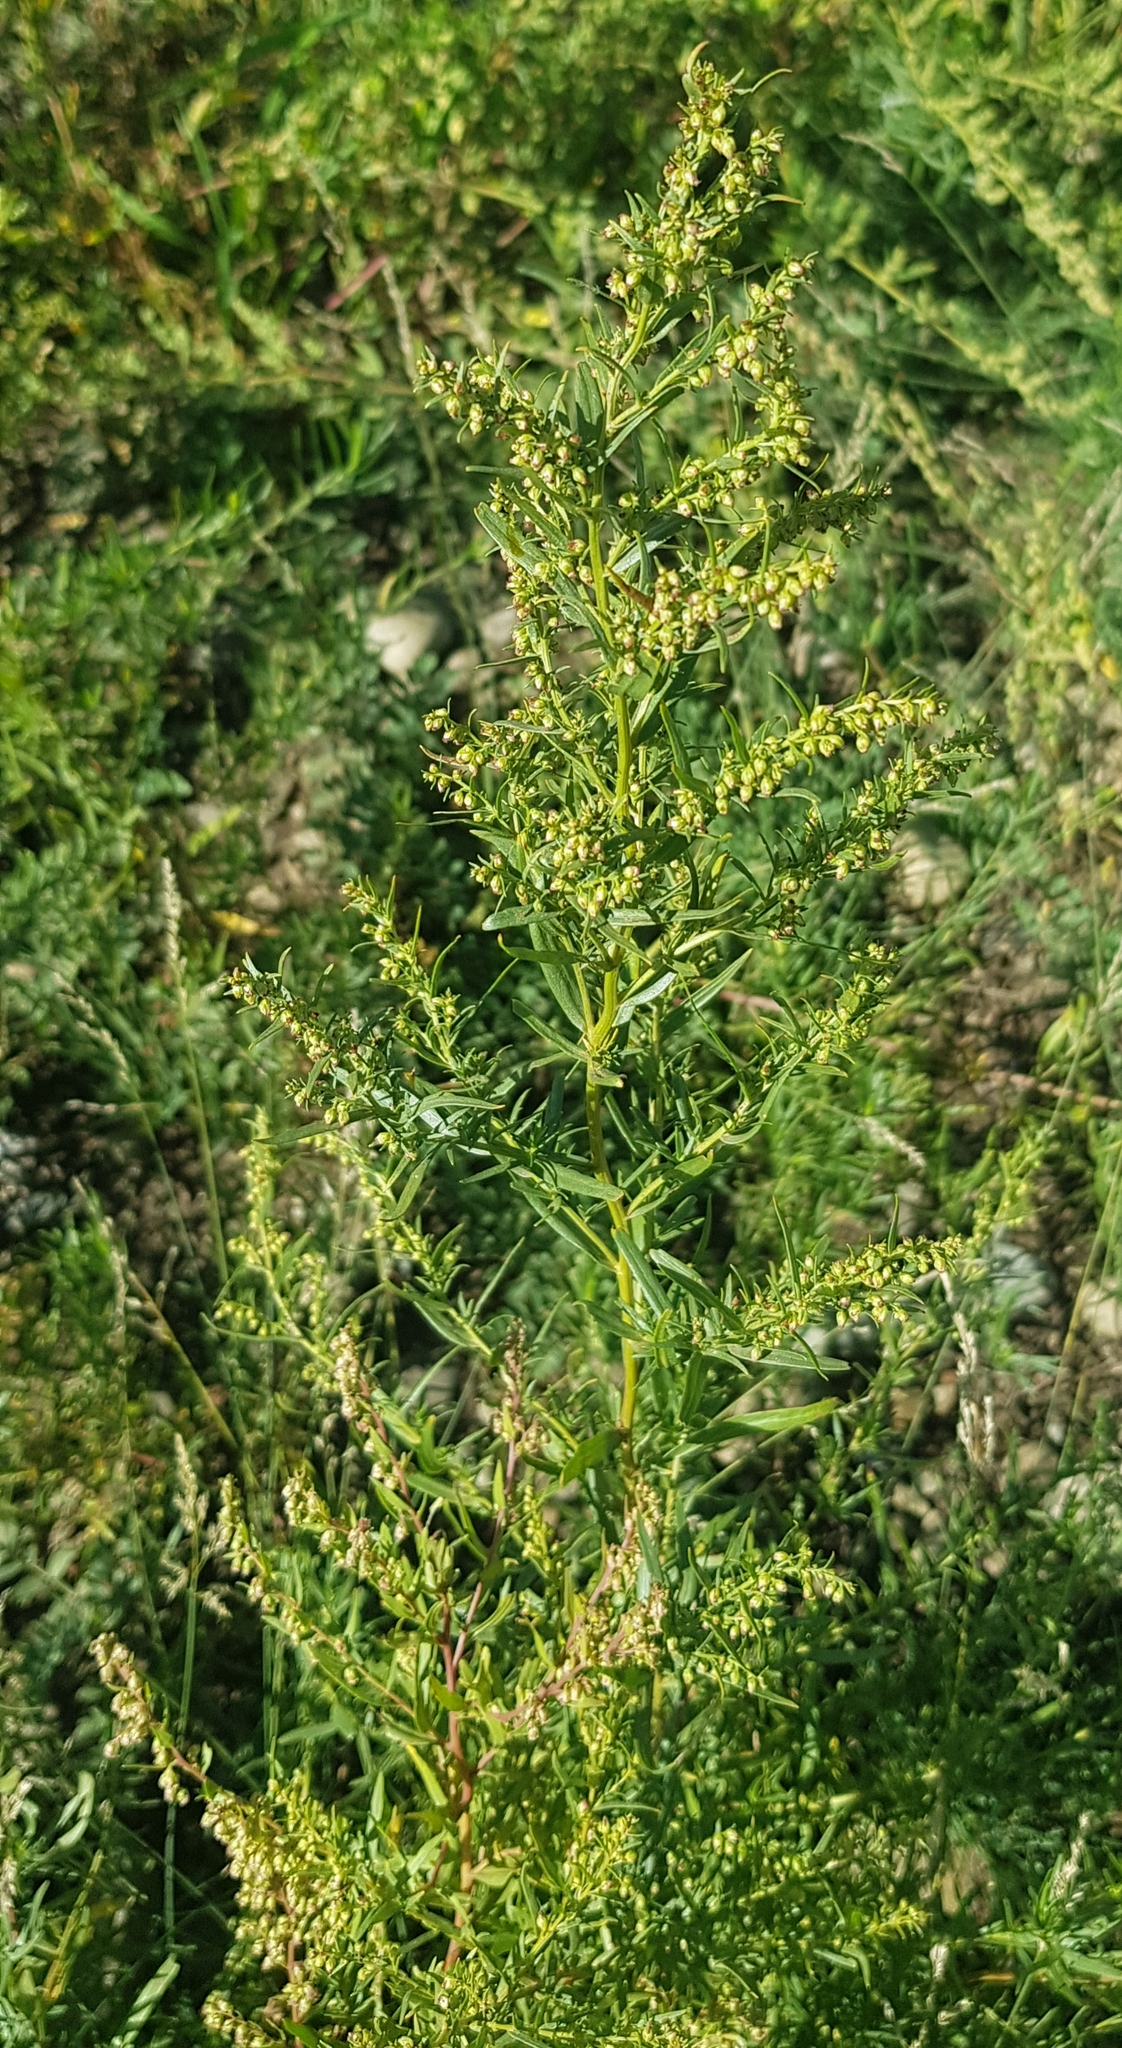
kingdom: Plantae
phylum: Tracheophyta
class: Magnoliopsida
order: Asterales
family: Asteraceae
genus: Artemisia
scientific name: Artemisia dracunculus
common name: Tarragon
